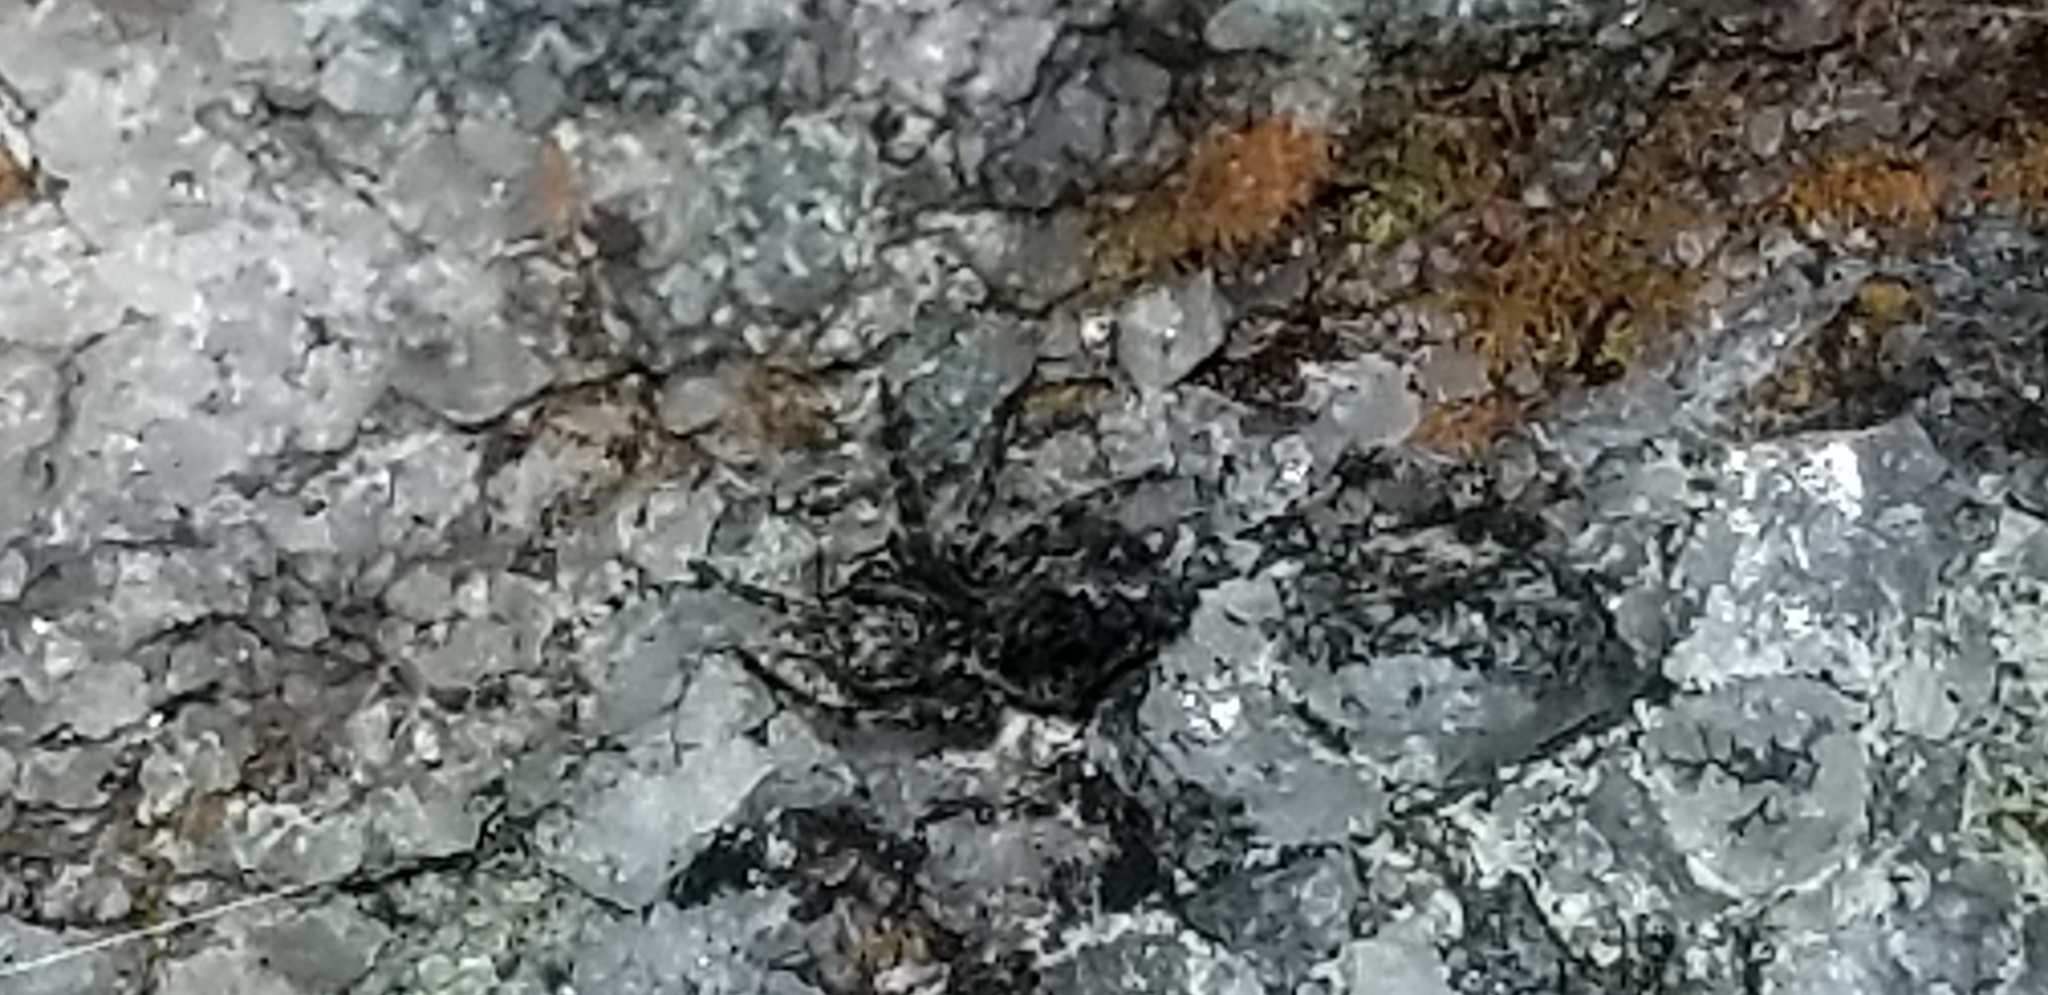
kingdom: Animalia
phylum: Arthropoda
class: Arachnida
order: Araneae
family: Araneidae
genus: Eriophora
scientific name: Eriophora pustulosa
